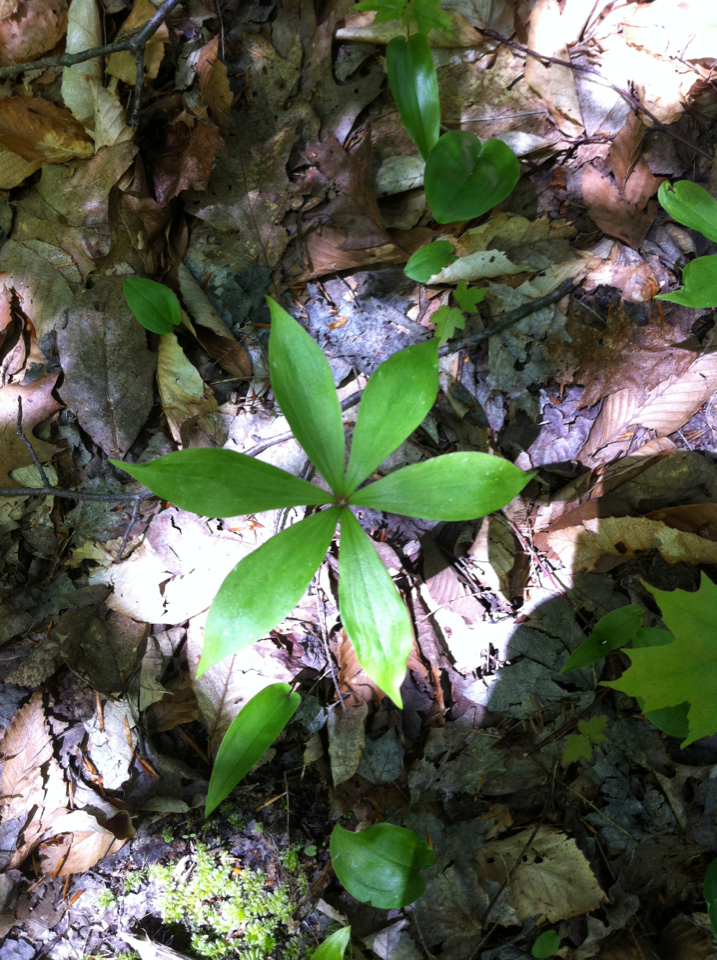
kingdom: Plantae
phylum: Tracheophyta
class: Liliopsida
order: Liliales
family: Liliaceae
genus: Medeola
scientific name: Medeola virginiana
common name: Indian cucumber-root
